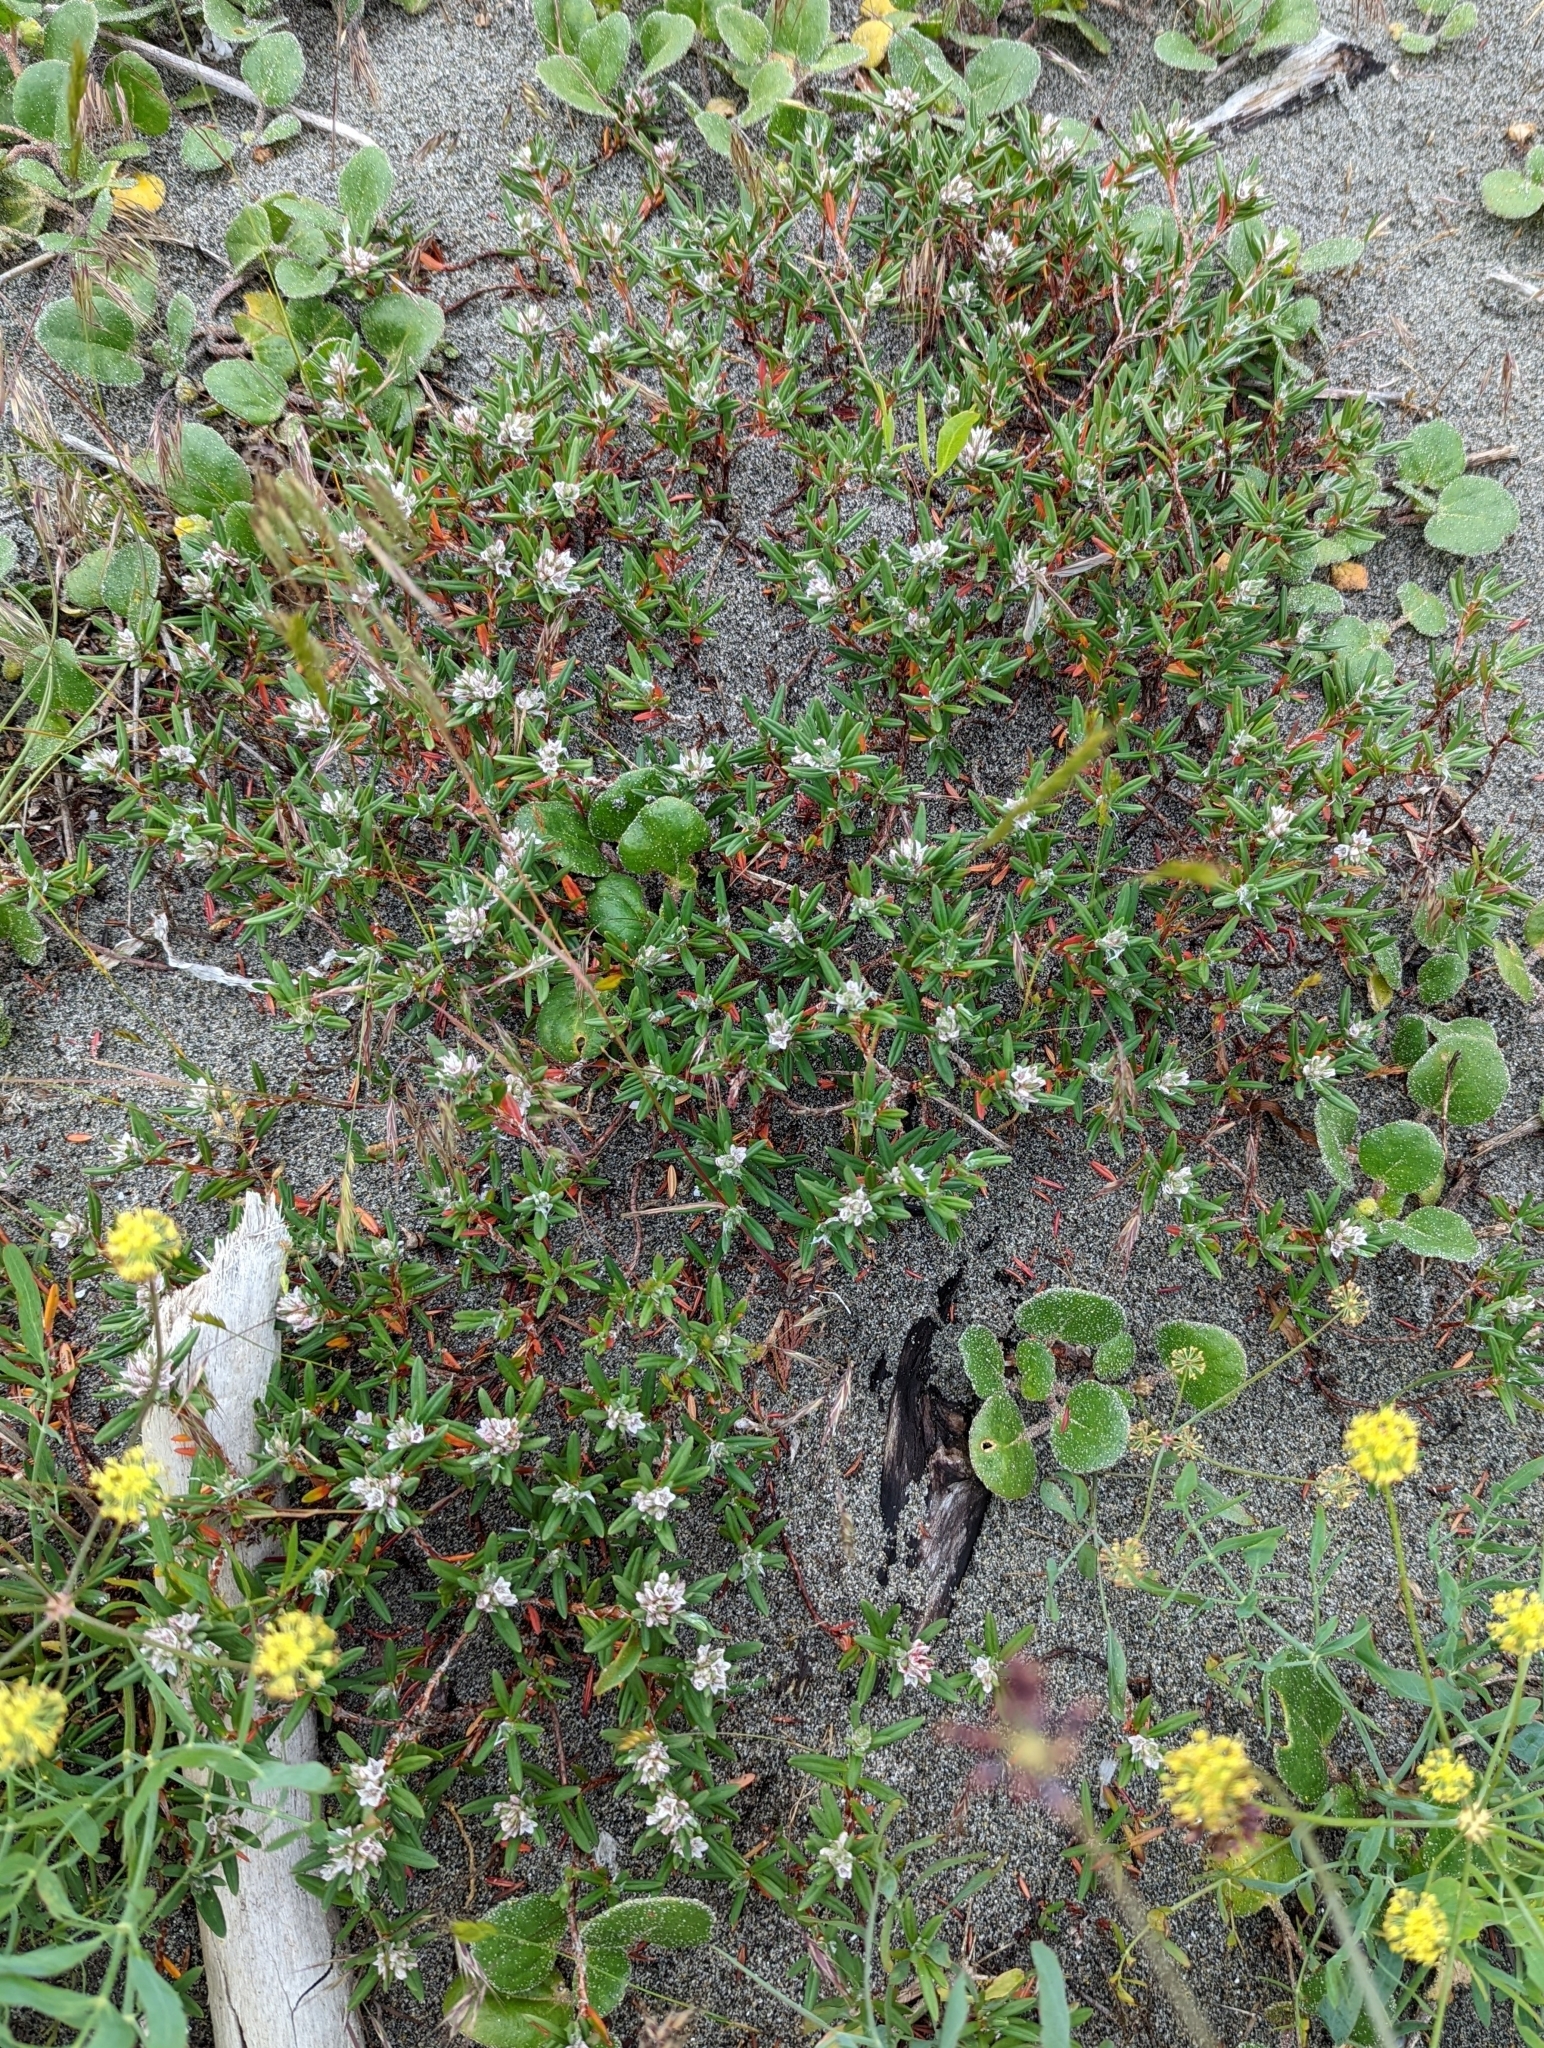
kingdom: Plantae
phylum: Tracheophyta
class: Magnoliopsida
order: Caryophyllales
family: Polygonaceae
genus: Polygonum
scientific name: Polygonum paronychia
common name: Dune knotweed
